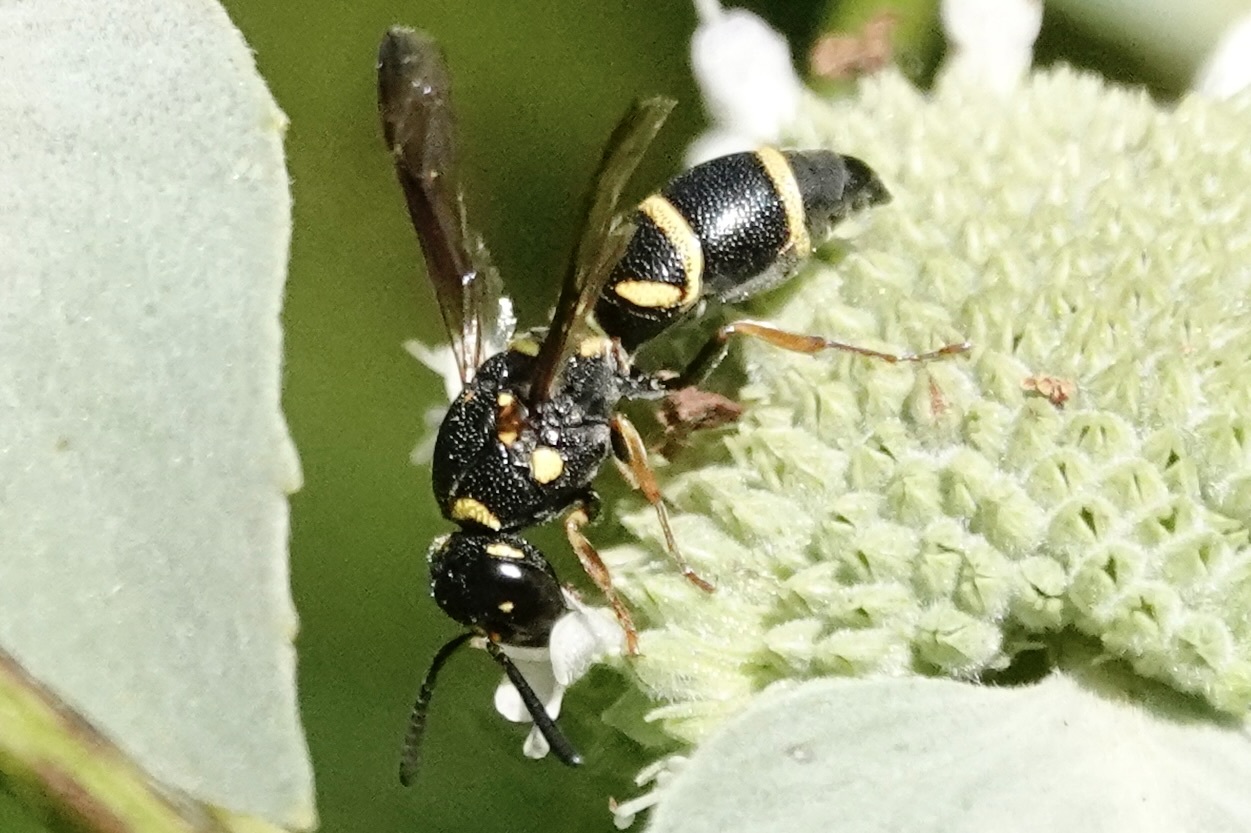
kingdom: Animalia
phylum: Arthropoda
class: Insecta
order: Hymenoptera
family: Eumenidae
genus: Parancistrocerus
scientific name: Parancistrocerus fulvipes
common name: Potter wasp
